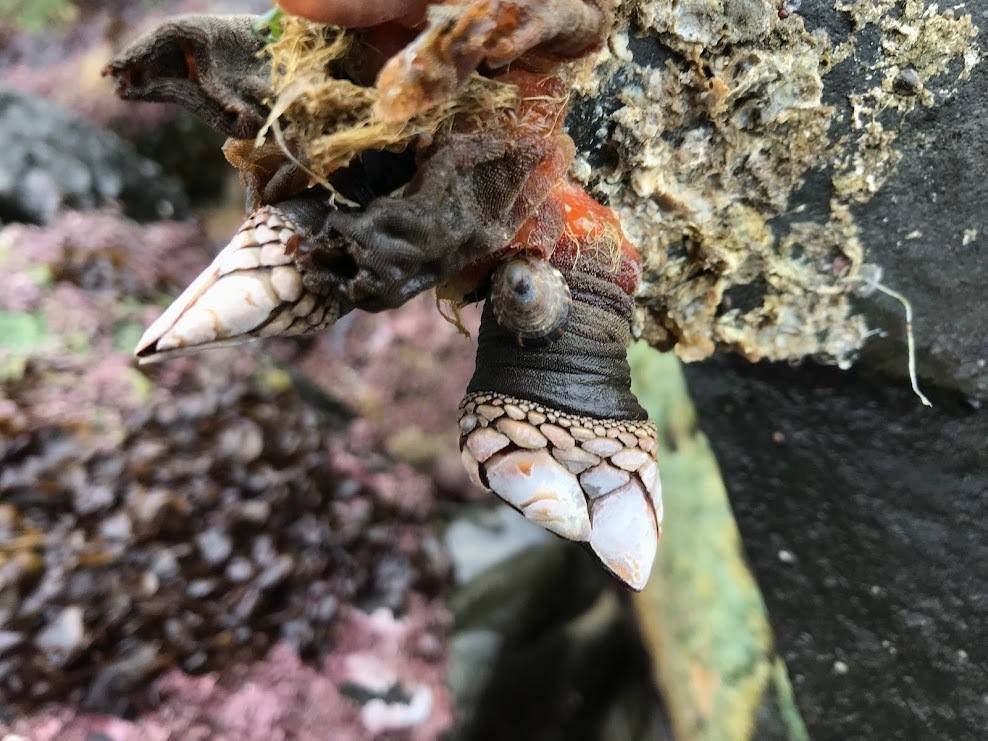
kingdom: Animalia
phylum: Arthropoda
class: Maxillopoda
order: Pedunculata
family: Pollicipedidae
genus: Pollicipes
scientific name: Pollicipes polymerus
